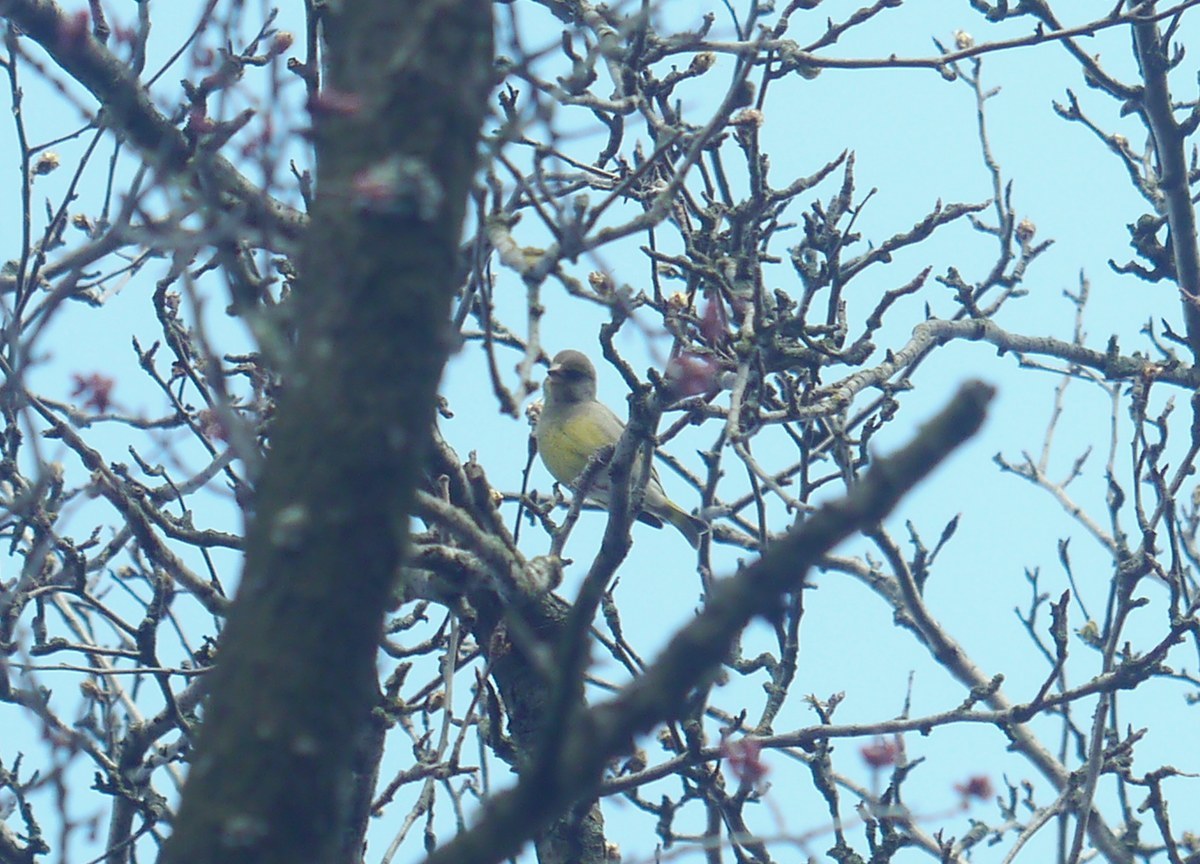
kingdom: Plantae
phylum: Tracheophyta
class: Liliopsida
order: Poales
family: Poaceae
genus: Chloris
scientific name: Chloris chloris
